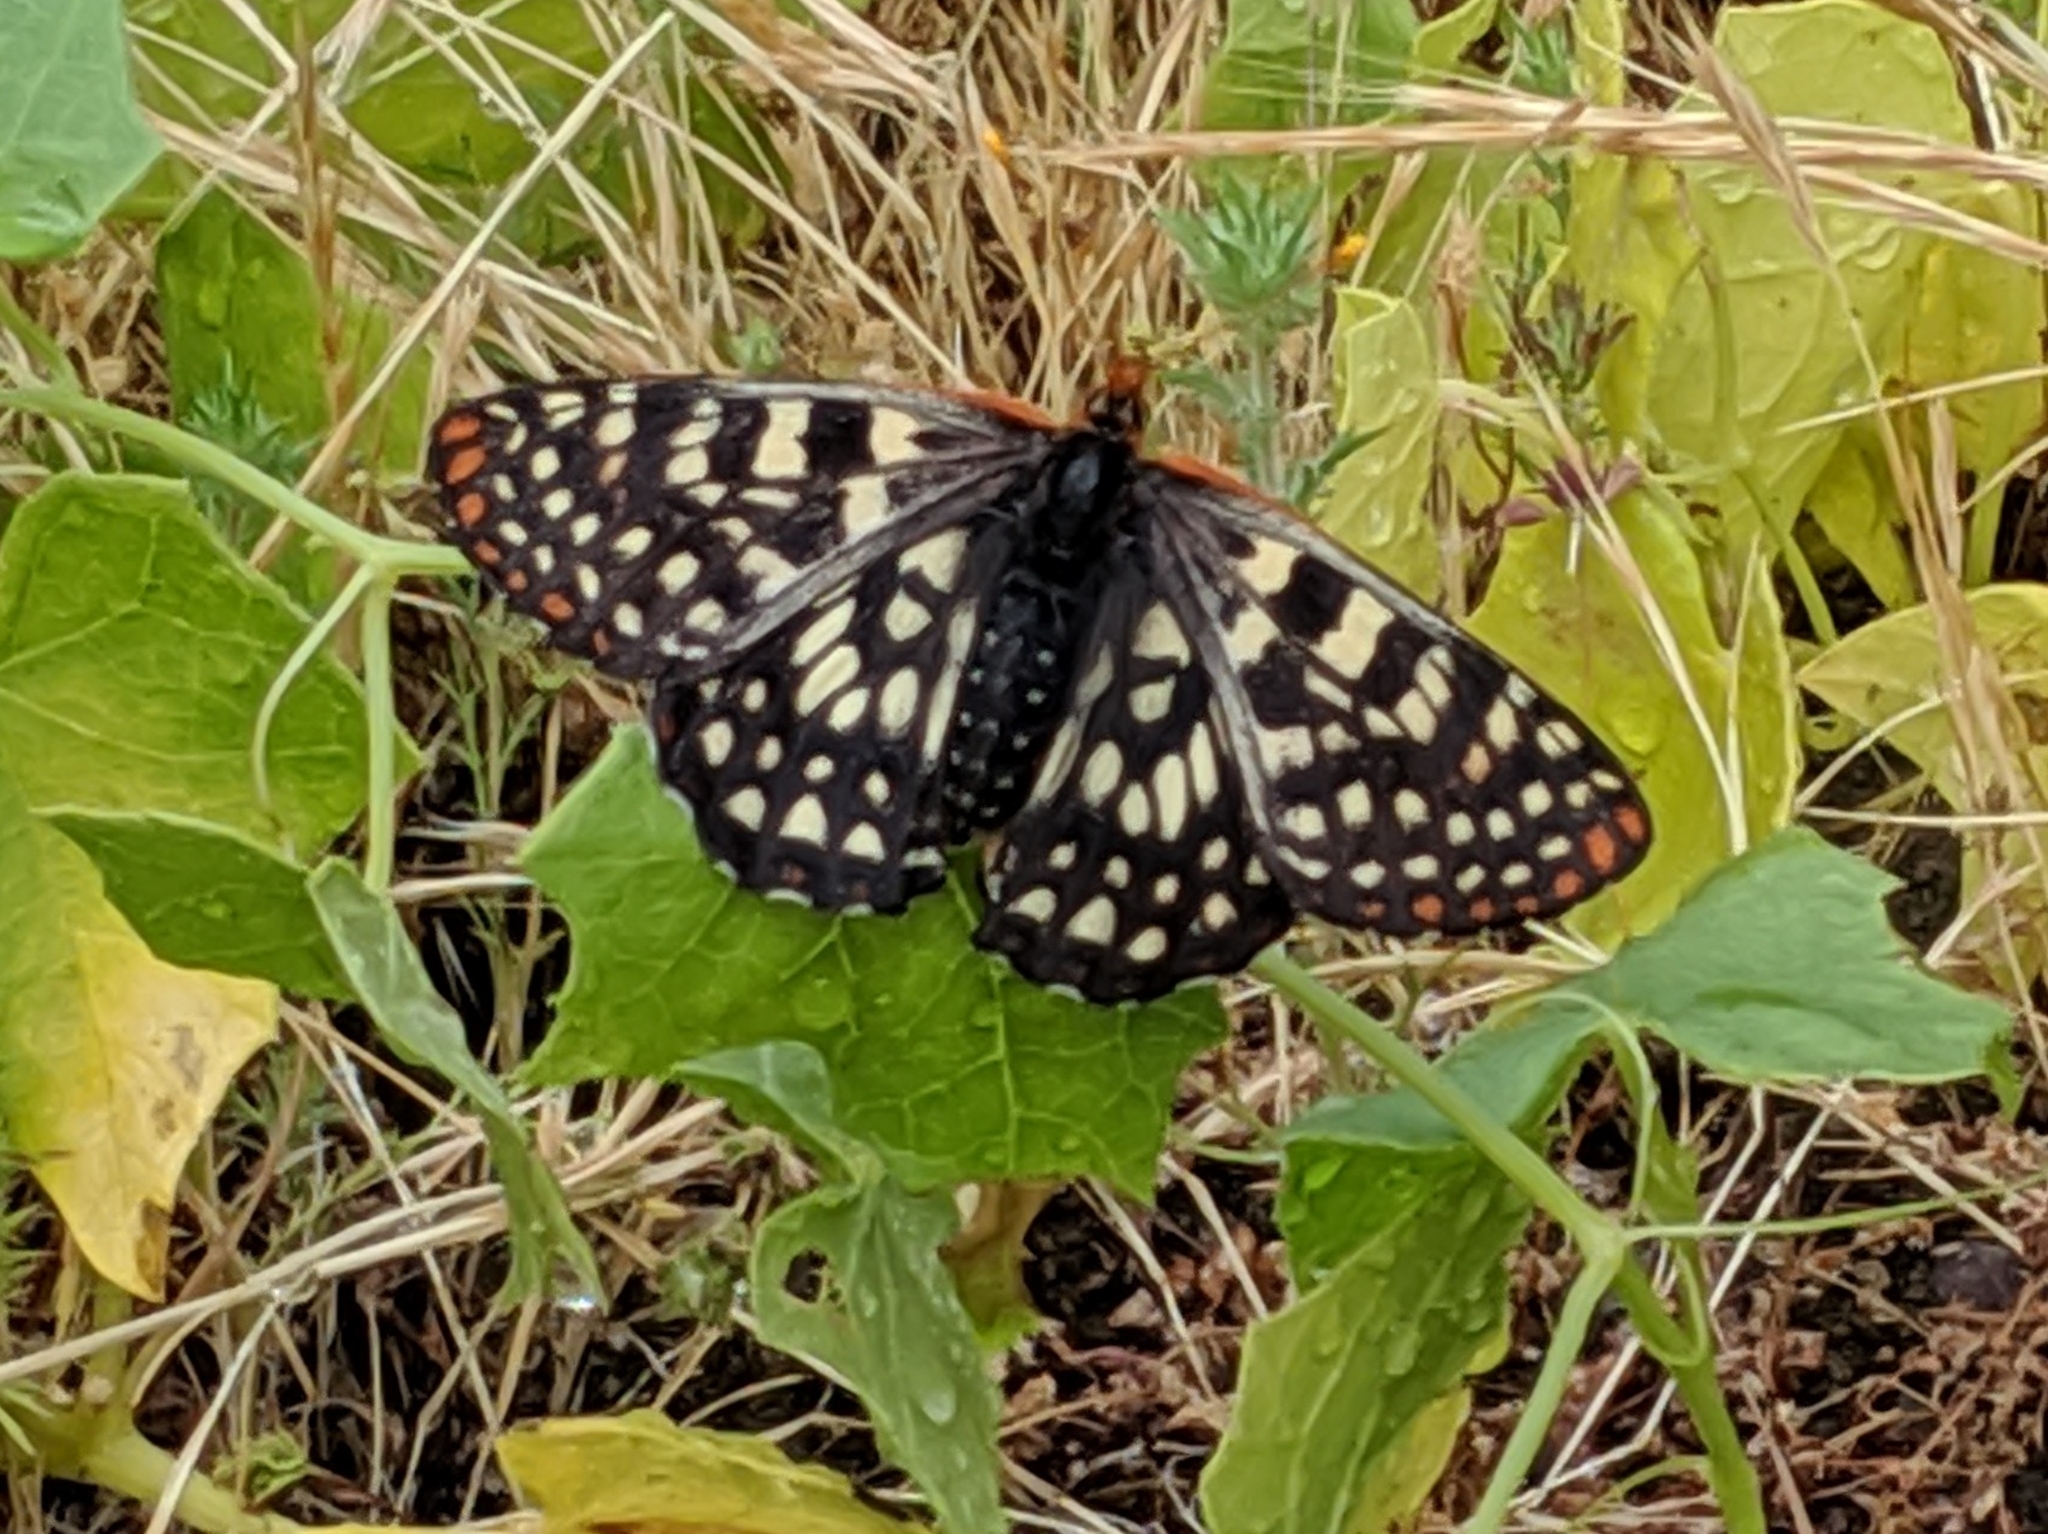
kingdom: Animalia
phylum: Arthropoda
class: Insecta
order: Lepidoptera
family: Nymphalidae
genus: Occidryas
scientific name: Occidryas chalcedona
